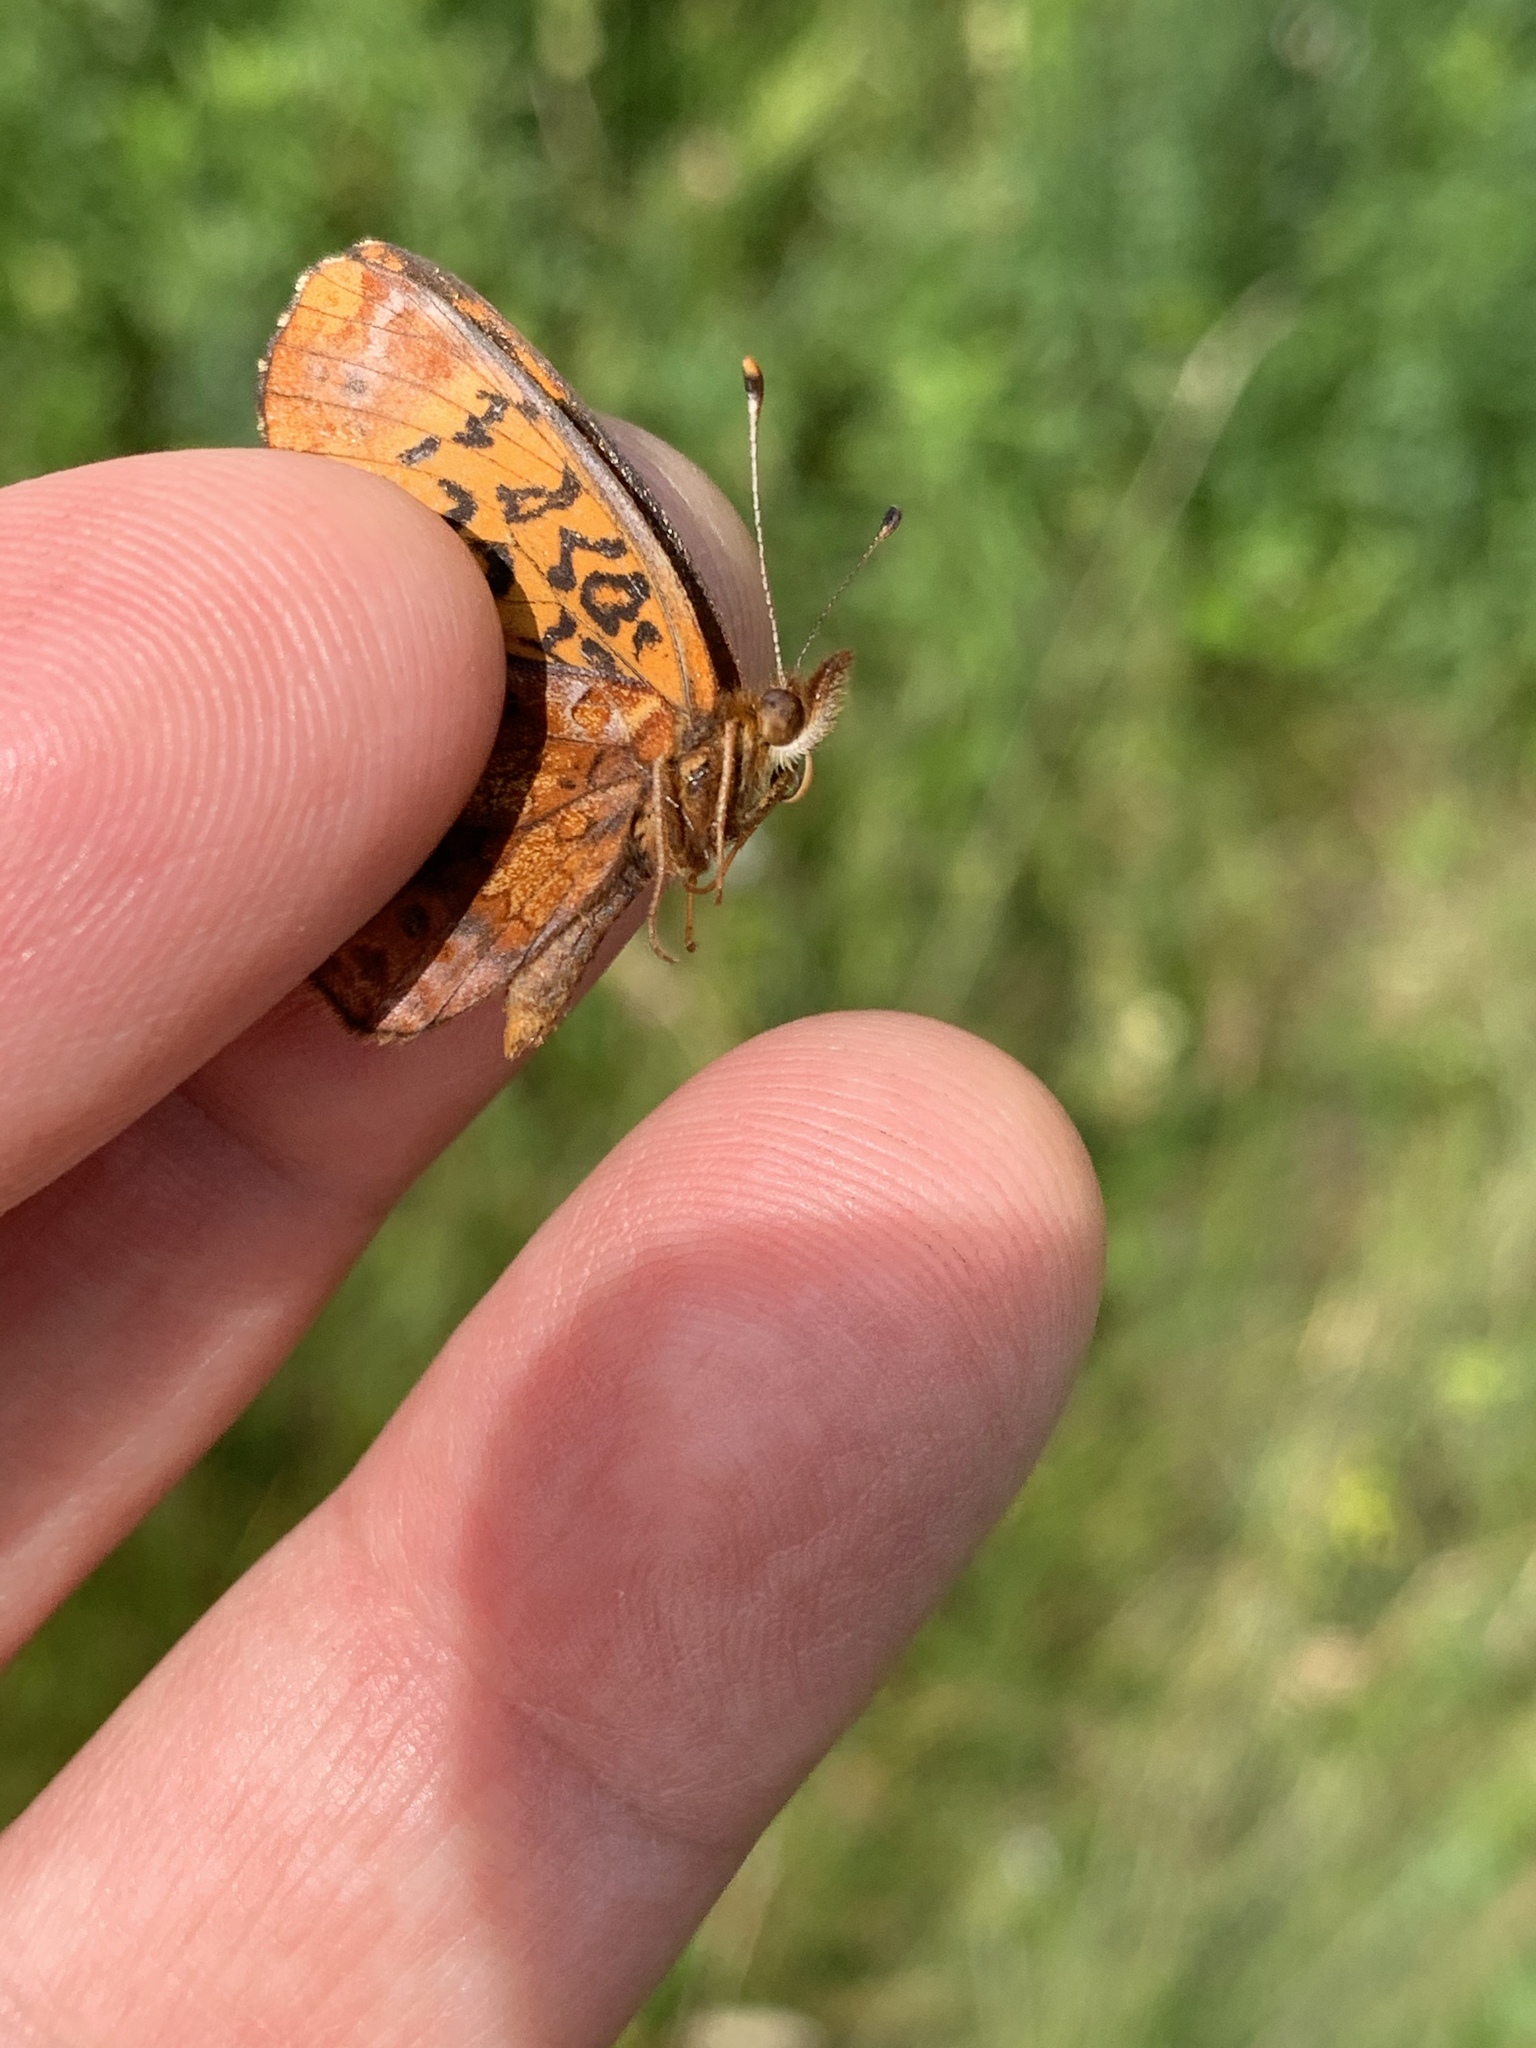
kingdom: Animalia
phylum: Arthropoda
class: Insecta
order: Lepidoptera
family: Nymphalidae
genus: Clossiana
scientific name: Clossiana toddi
